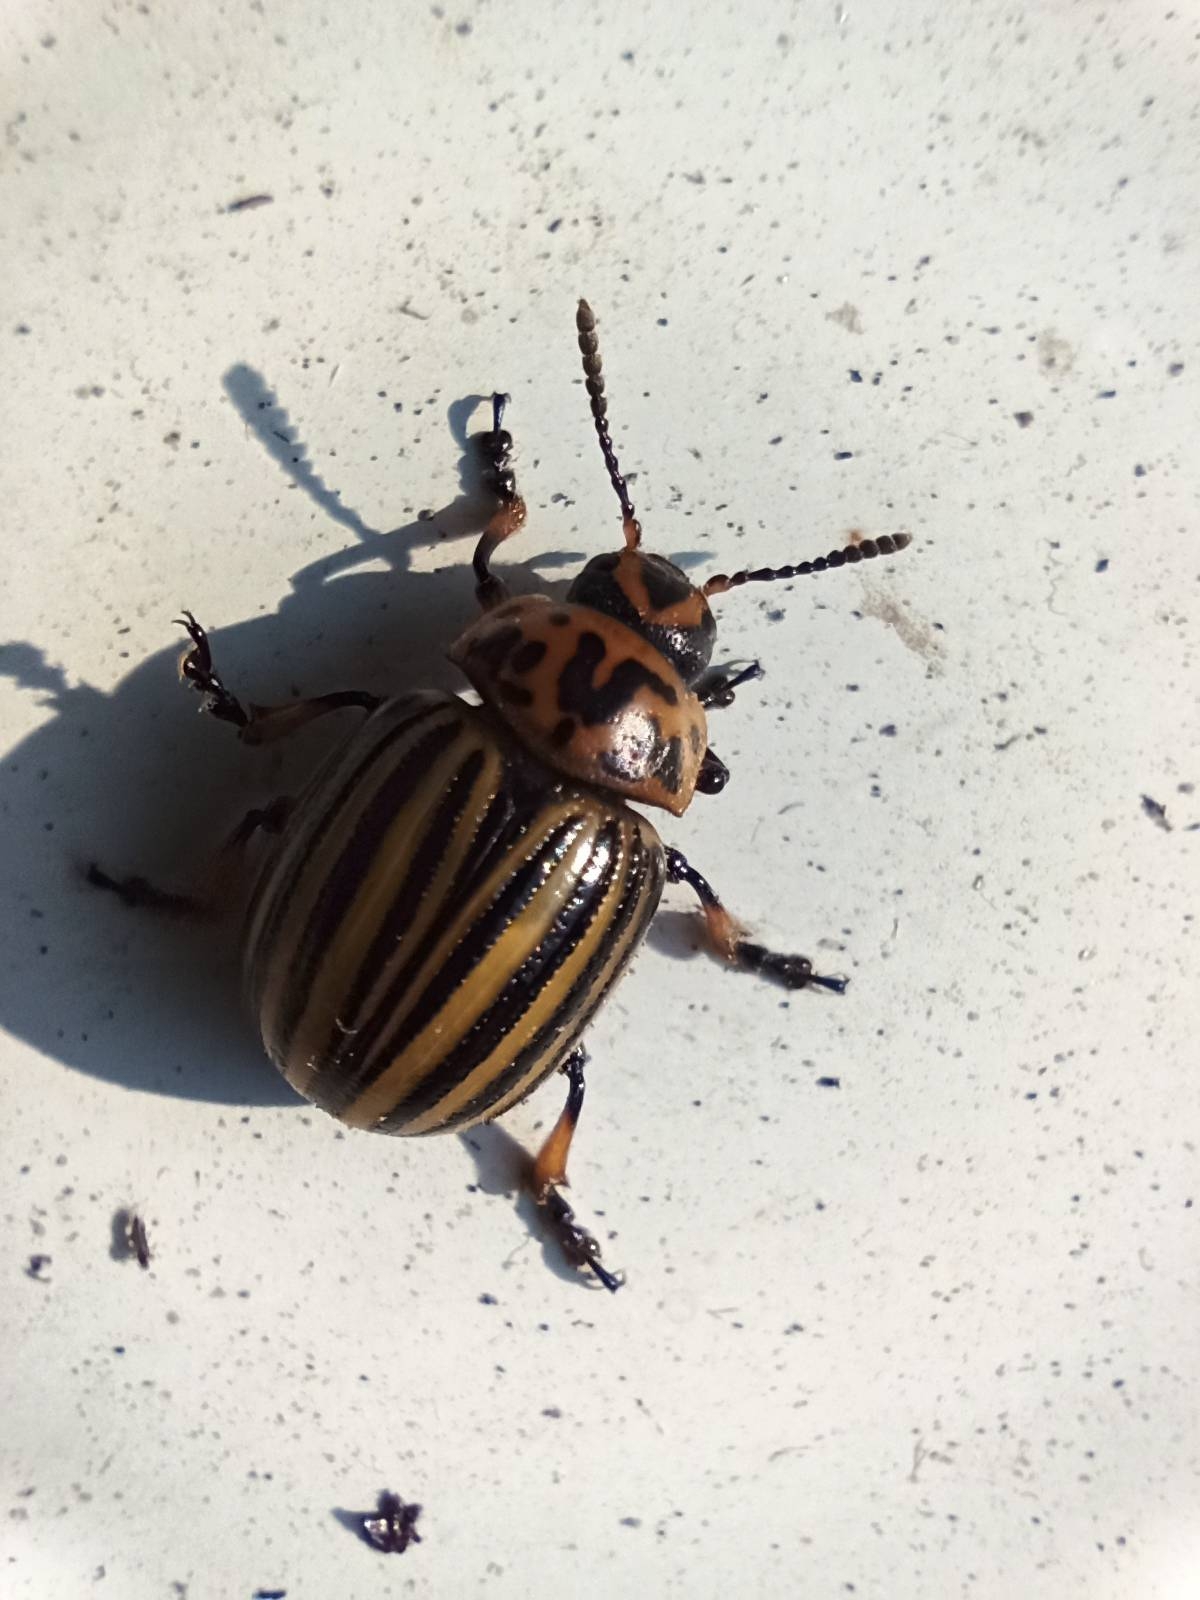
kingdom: Animalia
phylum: Arthropoda
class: Insecta
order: Coleoptera
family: Chrysomelidae
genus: Leptinotarsa
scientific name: Leptinotarsa decemlineata
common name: Colorado potato beetle
